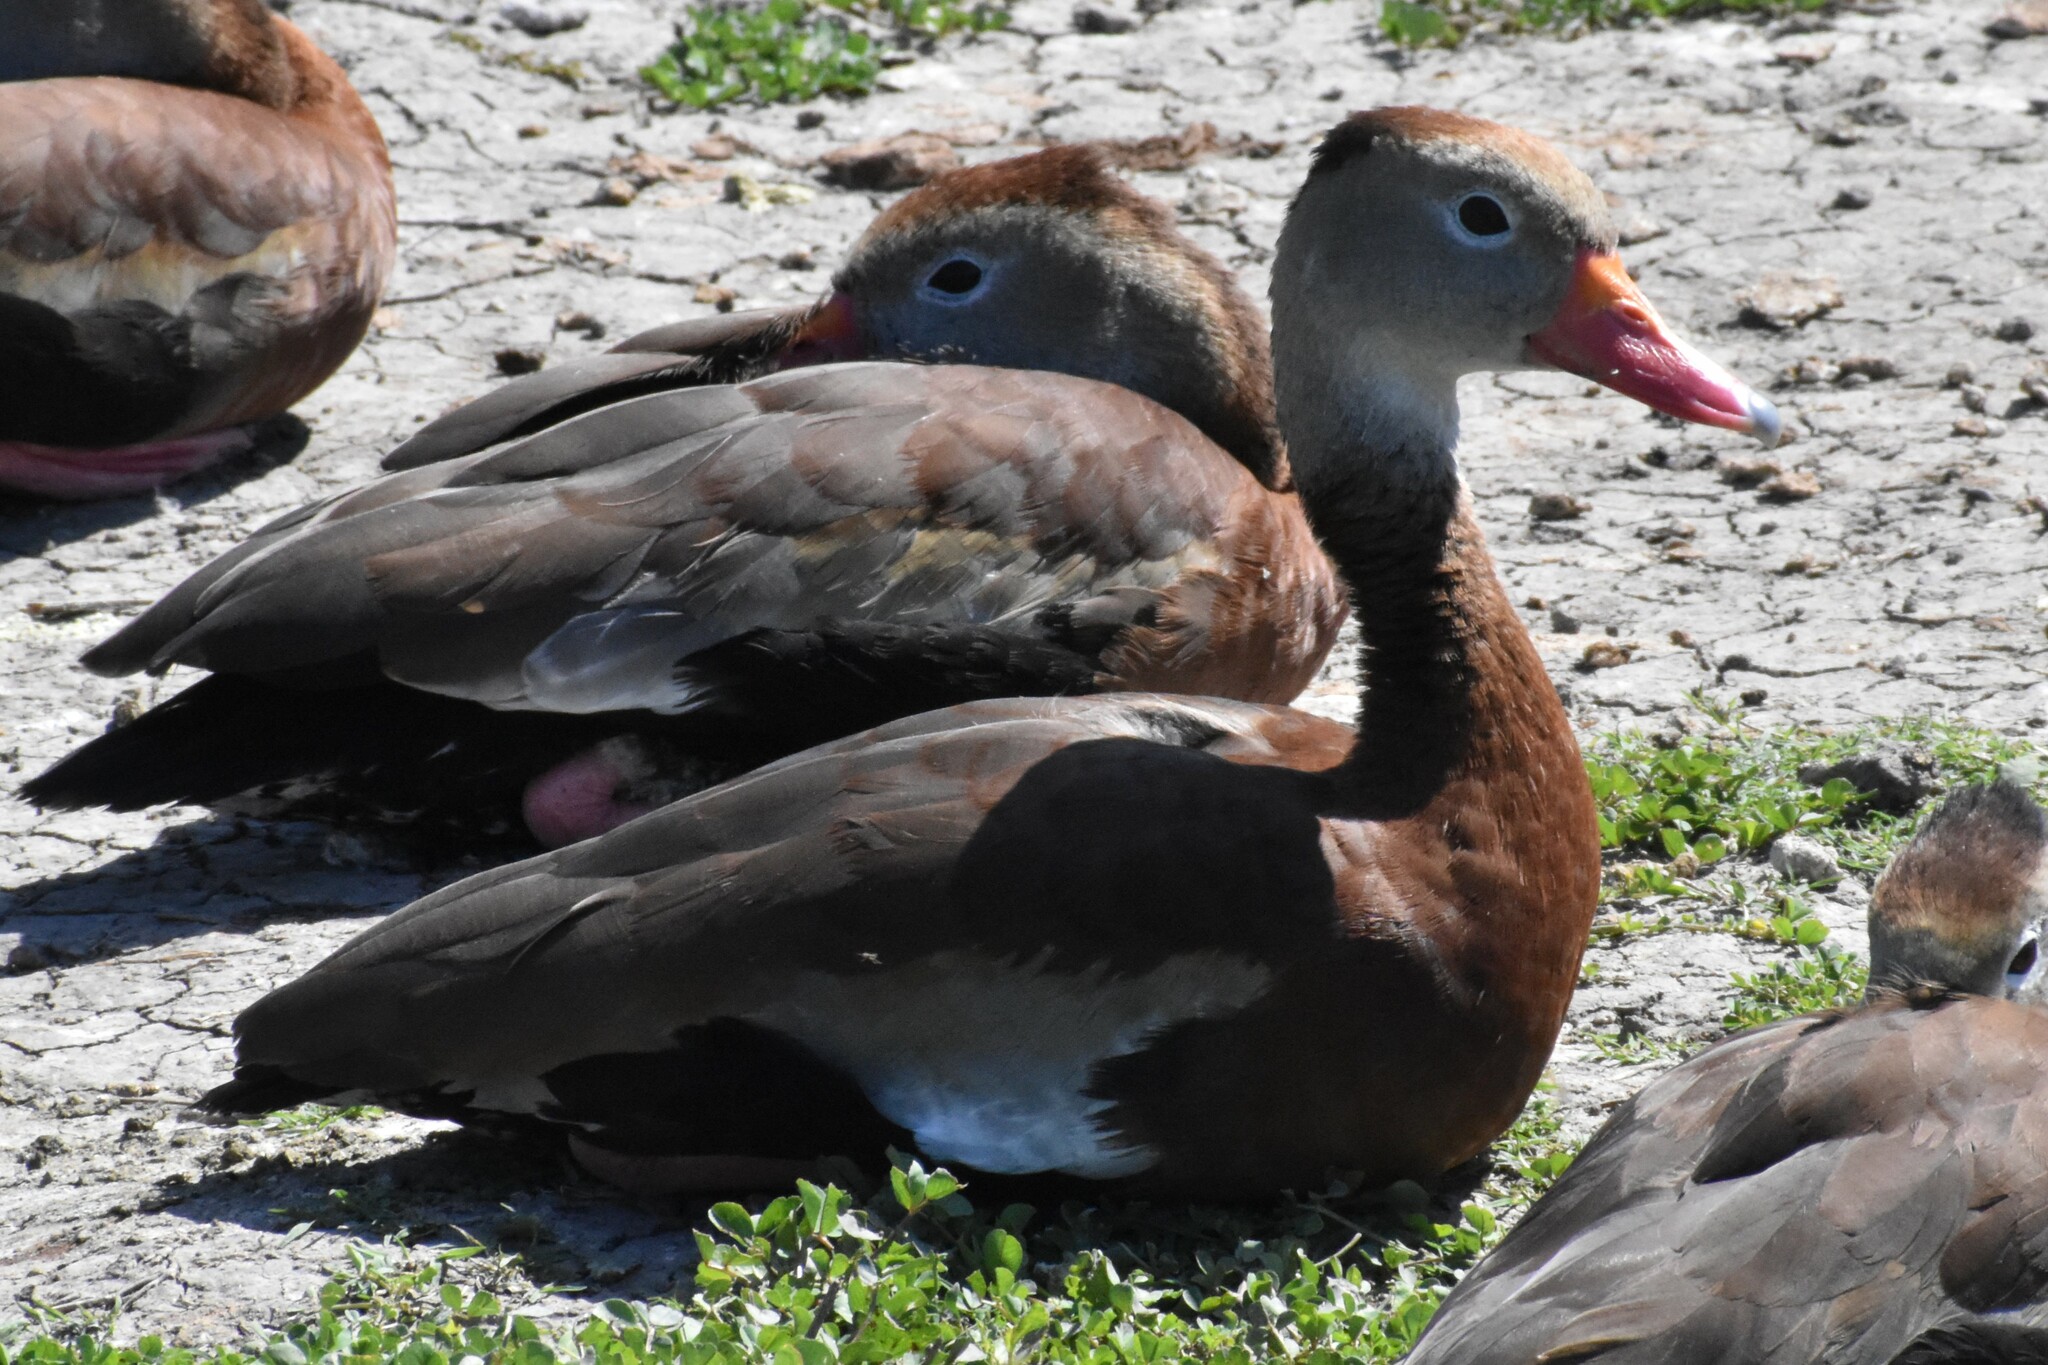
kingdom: Animalia
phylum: Chordata
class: Aves
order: Anseriformes
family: Anatidae
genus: Dendrocygna
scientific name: Dendrocygna autumnalis
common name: Black-bellied whistling duck
